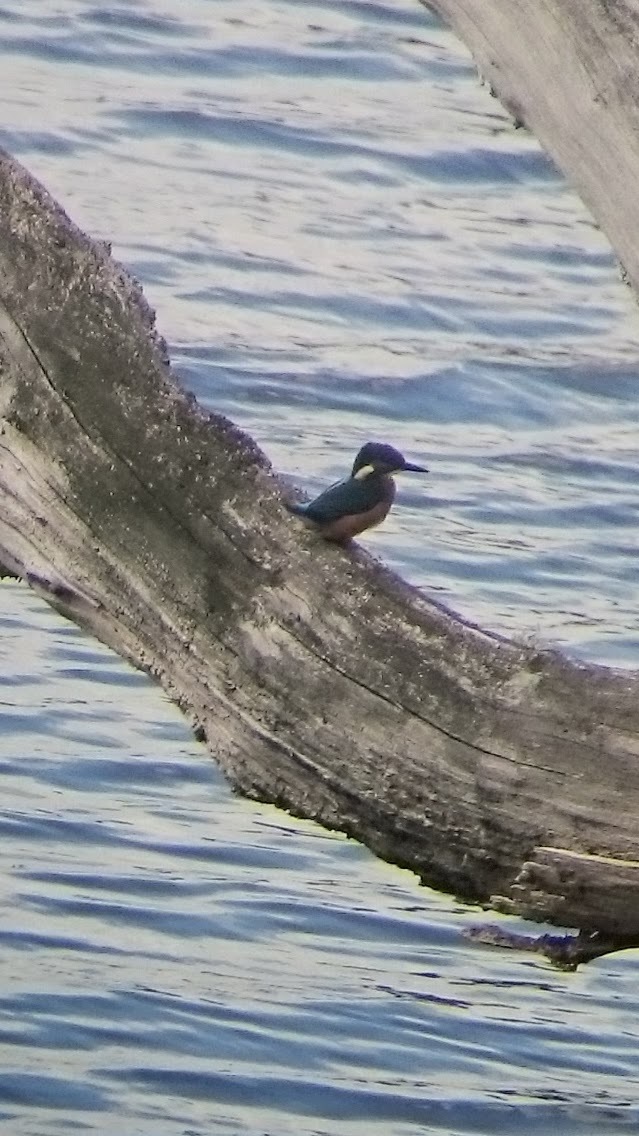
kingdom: Animalia
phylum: Chordata
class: Aves
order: Coraciiformes
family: Alcedinidae
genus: Alcedo
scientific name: Alcedo atthis
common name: Common kingfisher
